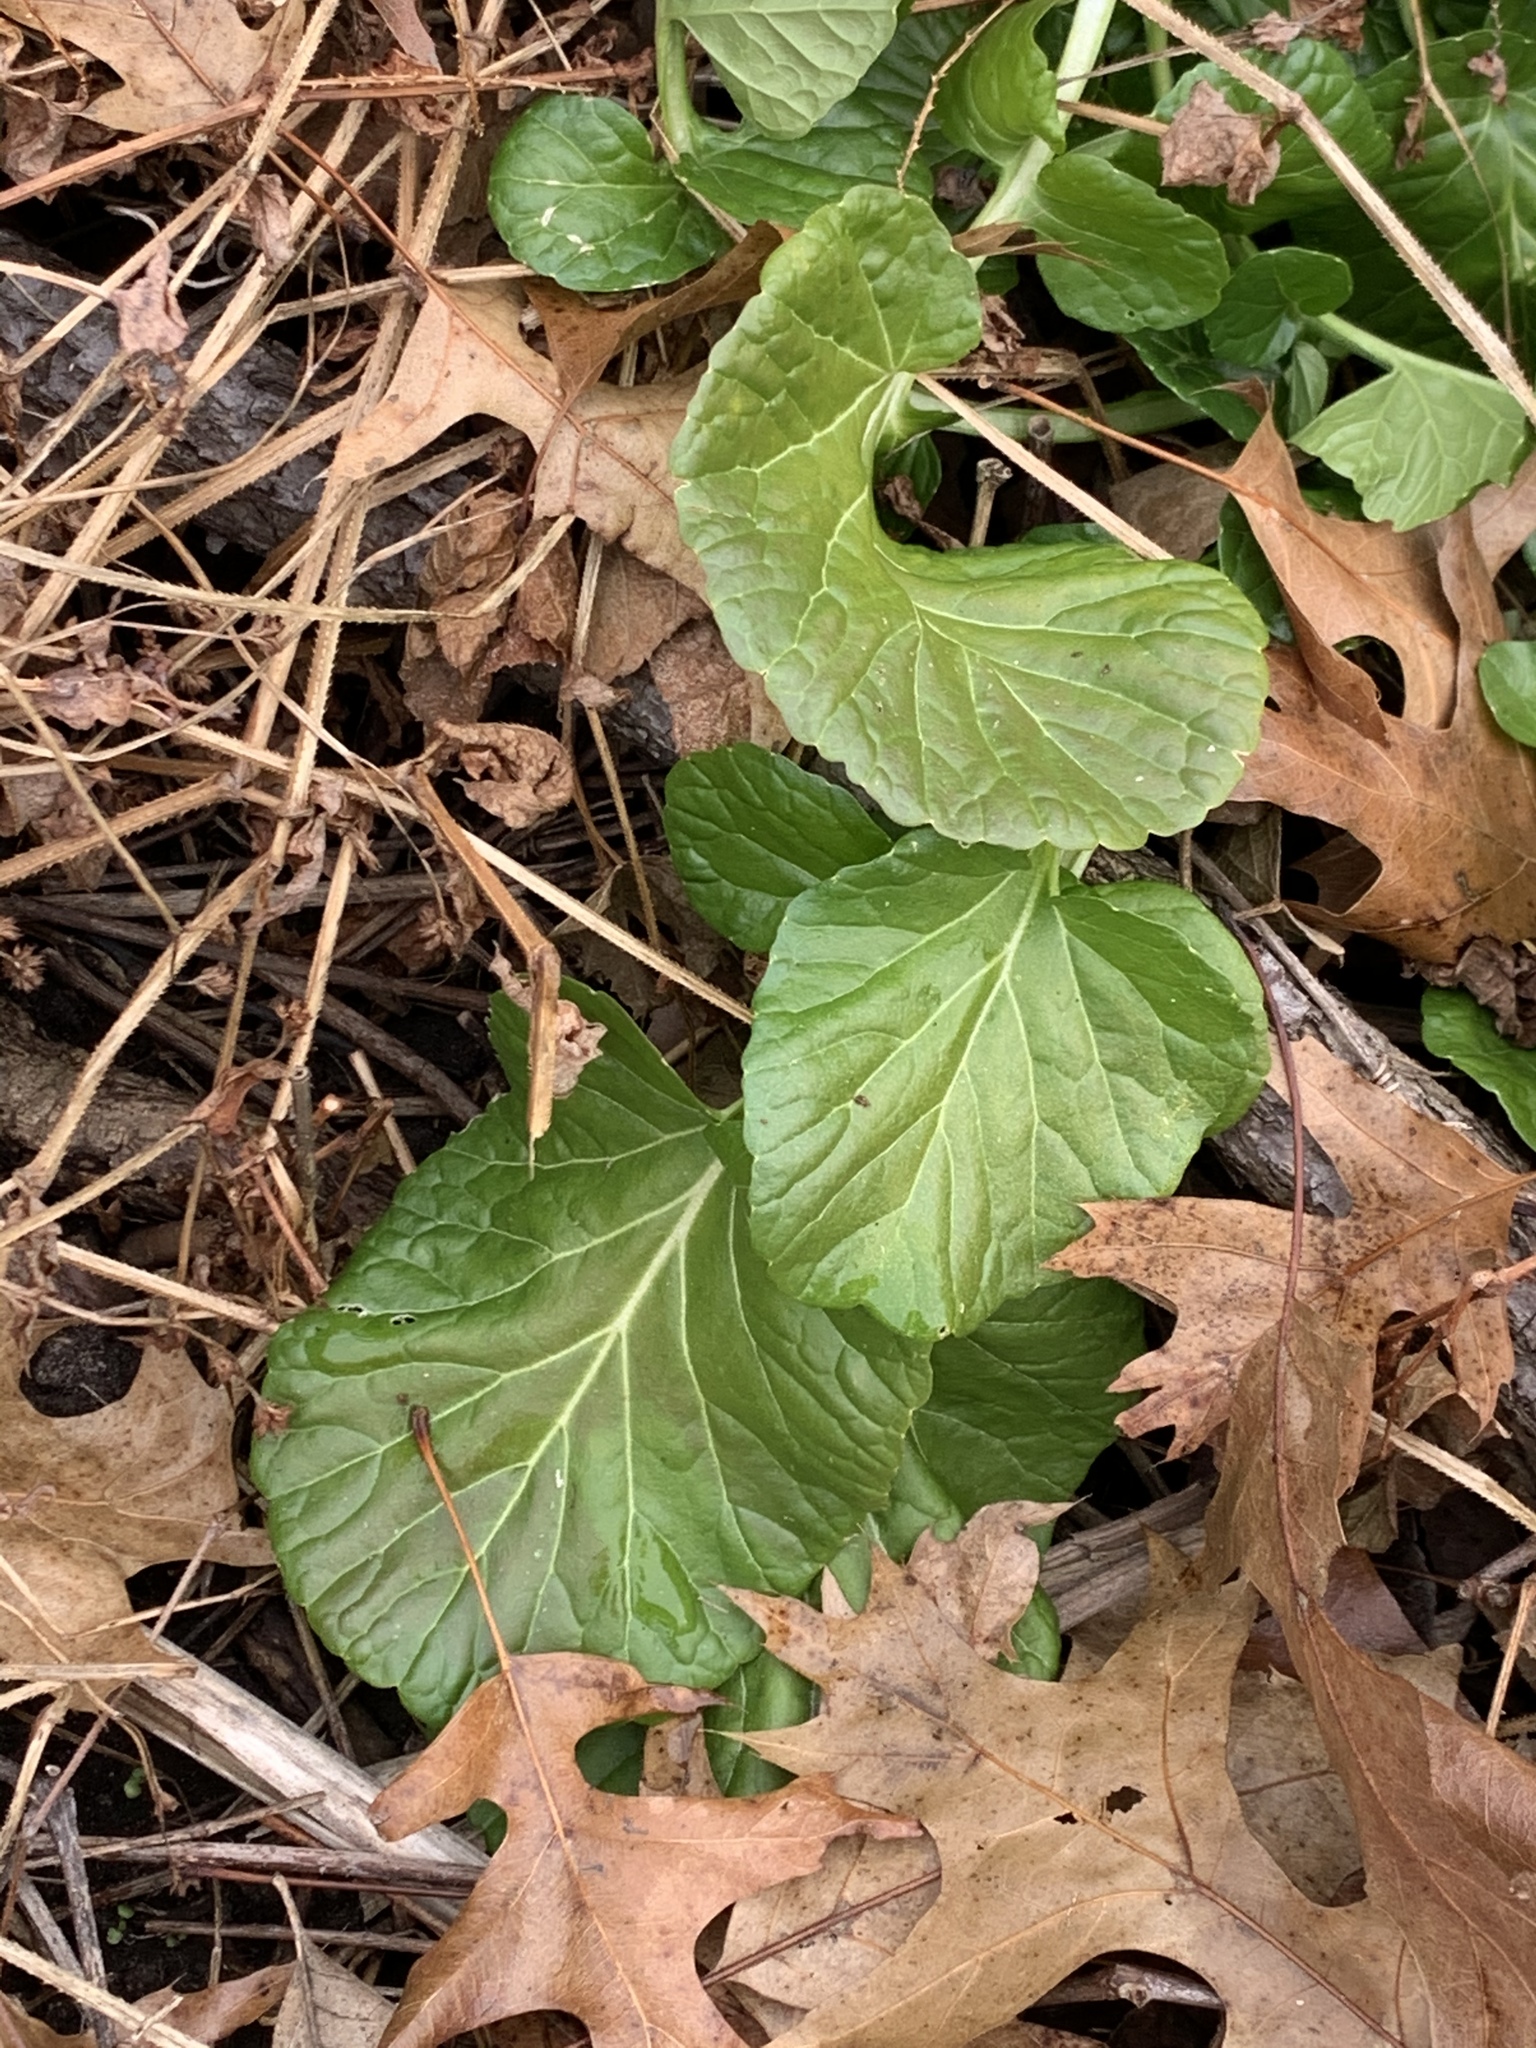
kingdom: Plantae
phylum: Tracheophyta
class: Magnoliopsida
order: Brassicales
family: Brassicaceae
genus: Barbarea
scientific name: Barbarea vulgaris
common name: Cressy-greens
